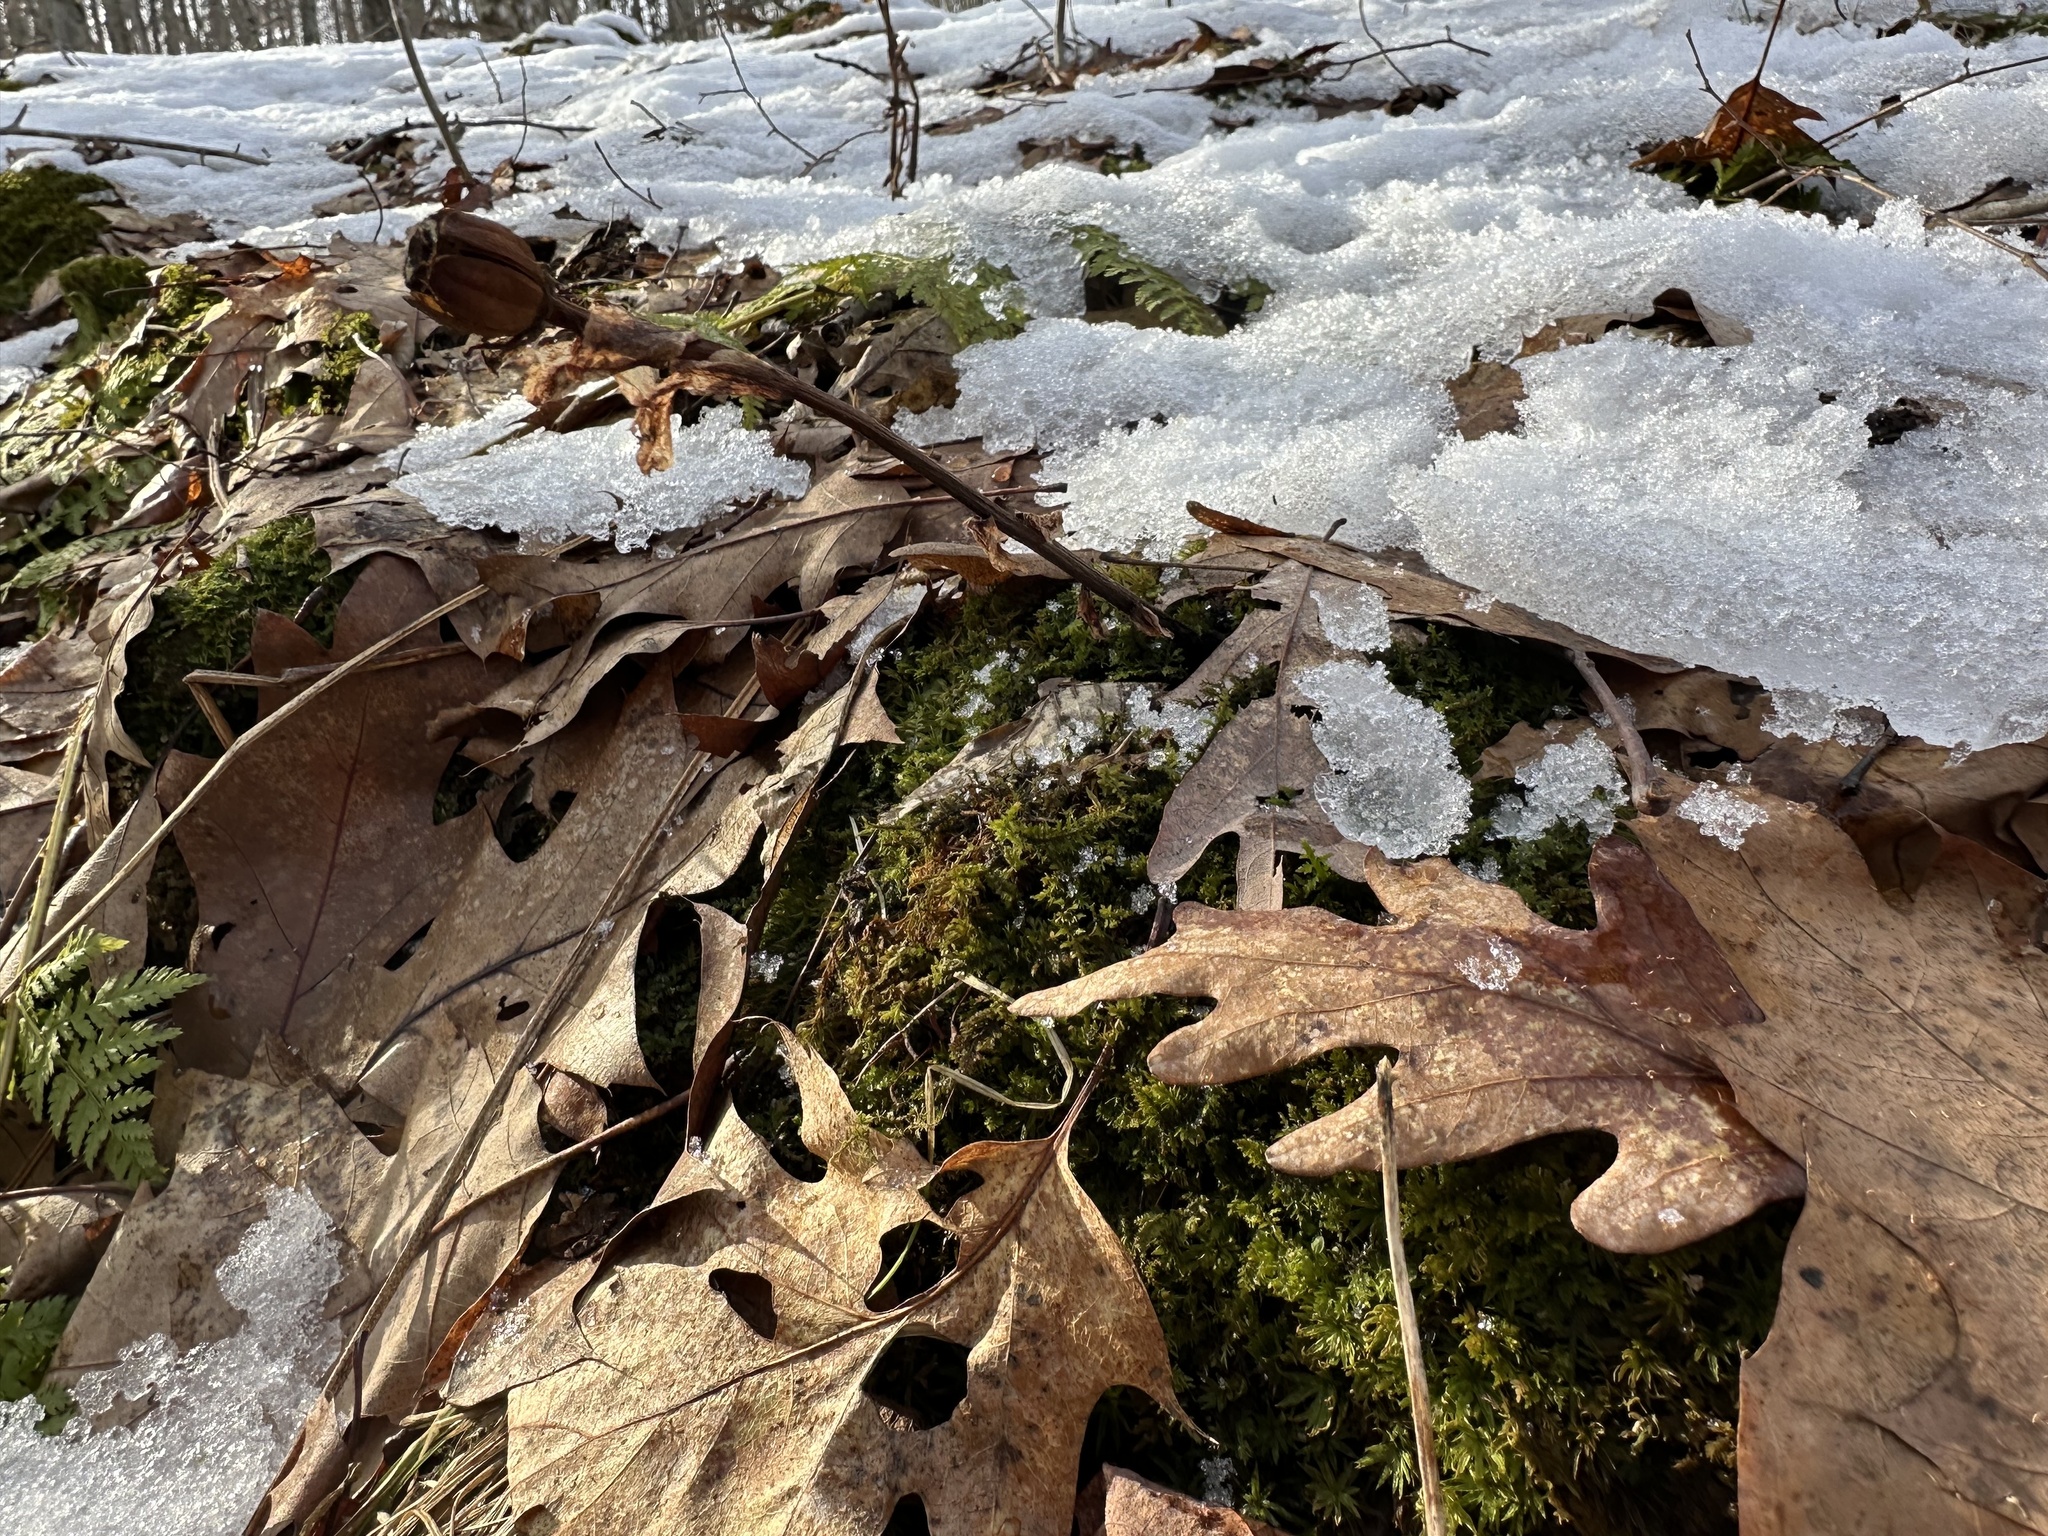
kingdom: Plantae
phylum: Tracheophyta
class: Magnoliopsida
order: Ericales
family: Ericaceae
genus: Monotropa
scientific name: Monotropa uniflora
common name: Convulsion root
